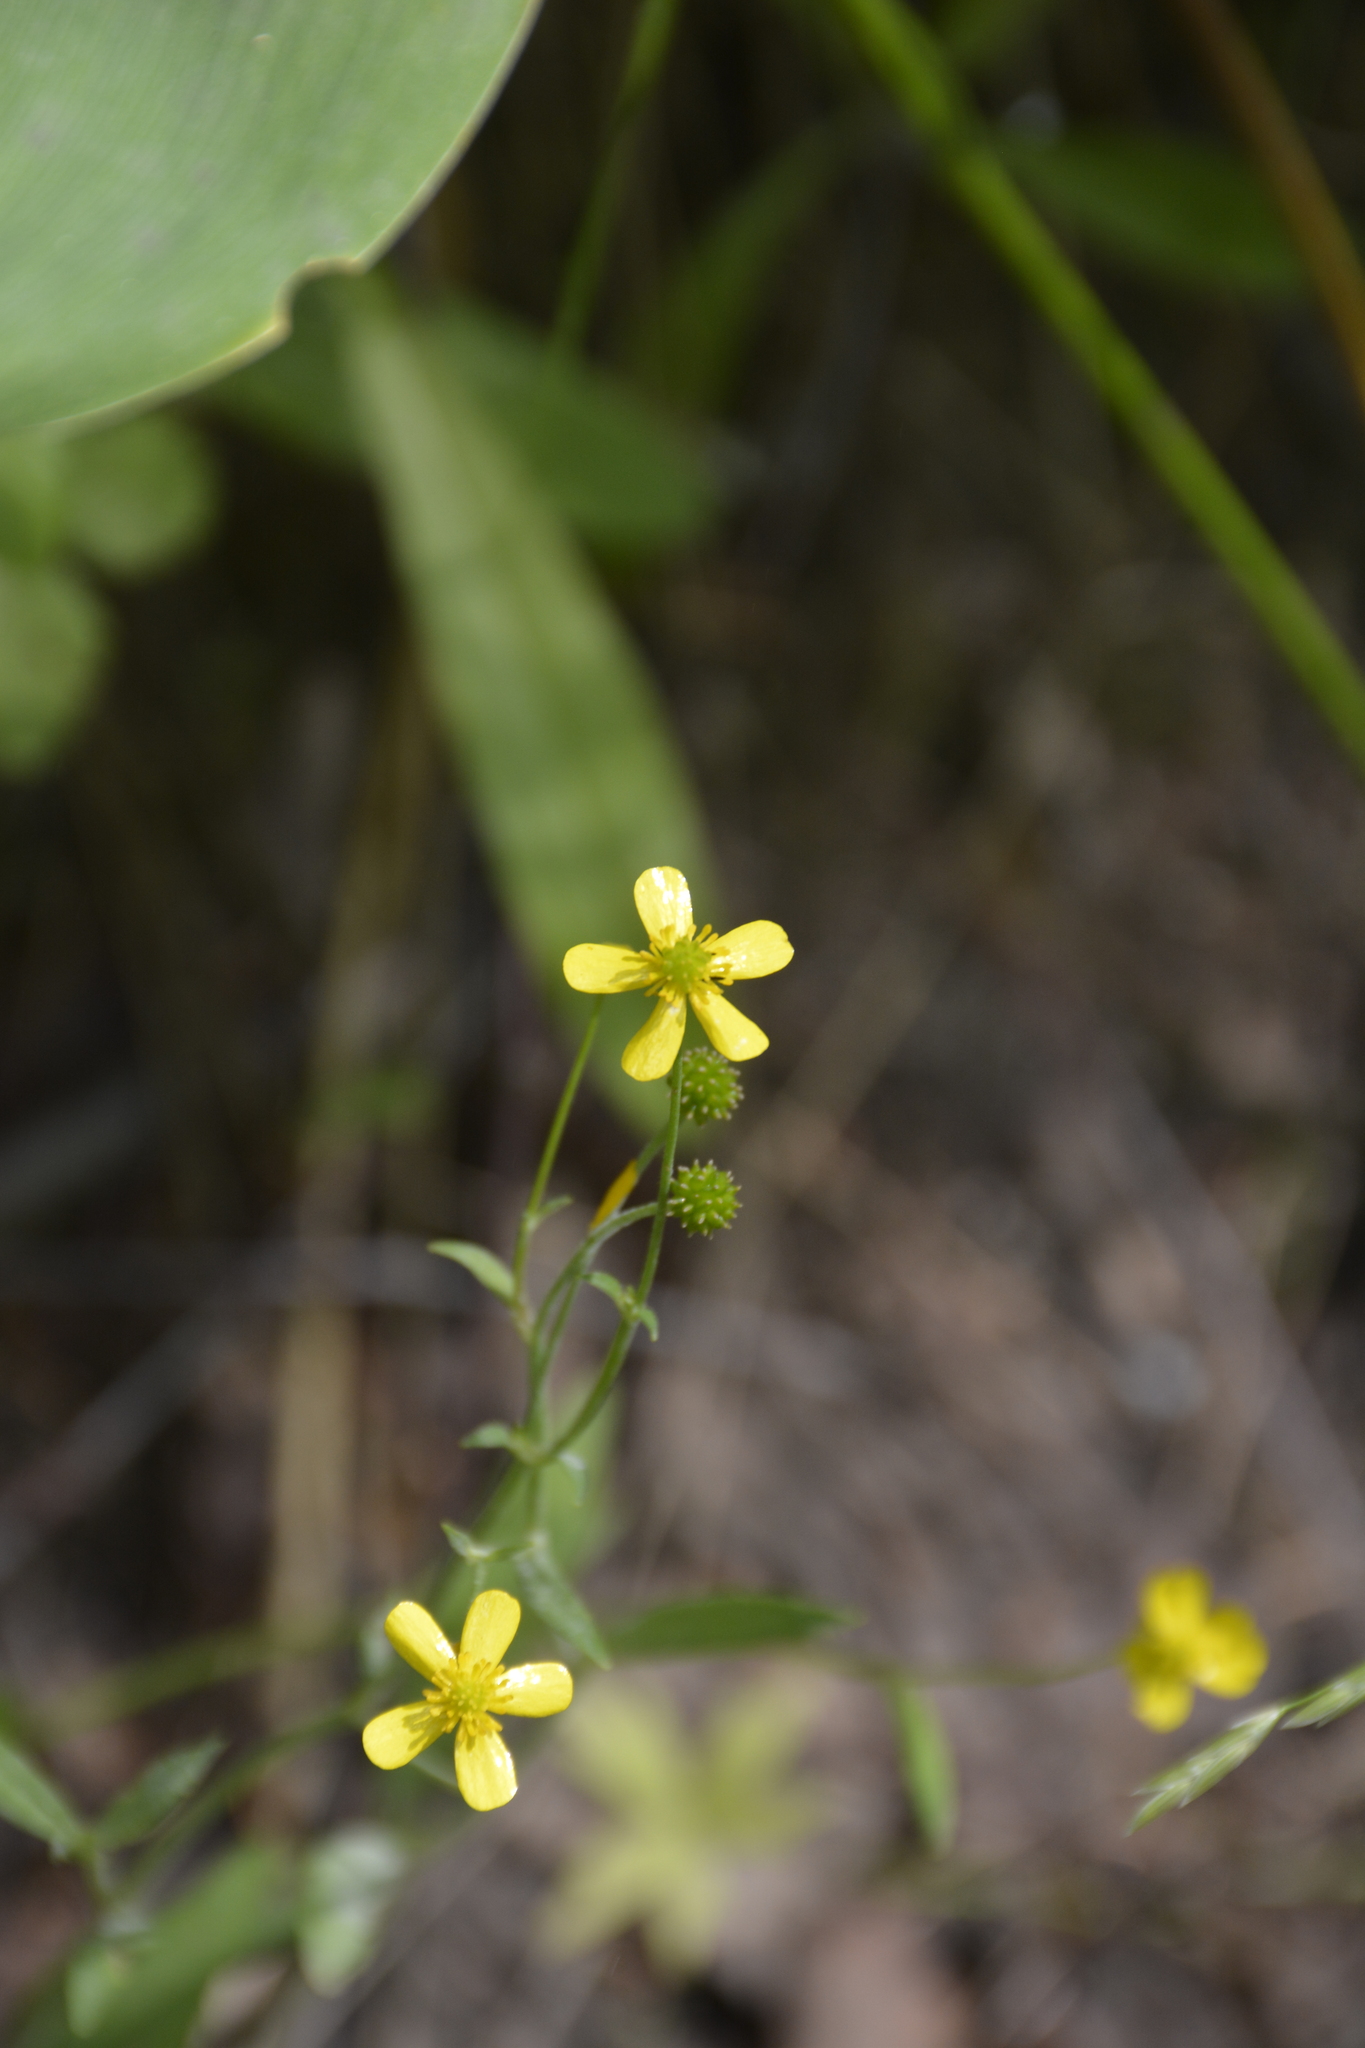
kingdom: Plantae
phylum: Tracheophyta
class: Magnoliopsida
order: Ranunculales
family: Ranunculaceae
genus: Ranunculus
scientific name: Ranunculus flammula
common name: Lesser spearwort
